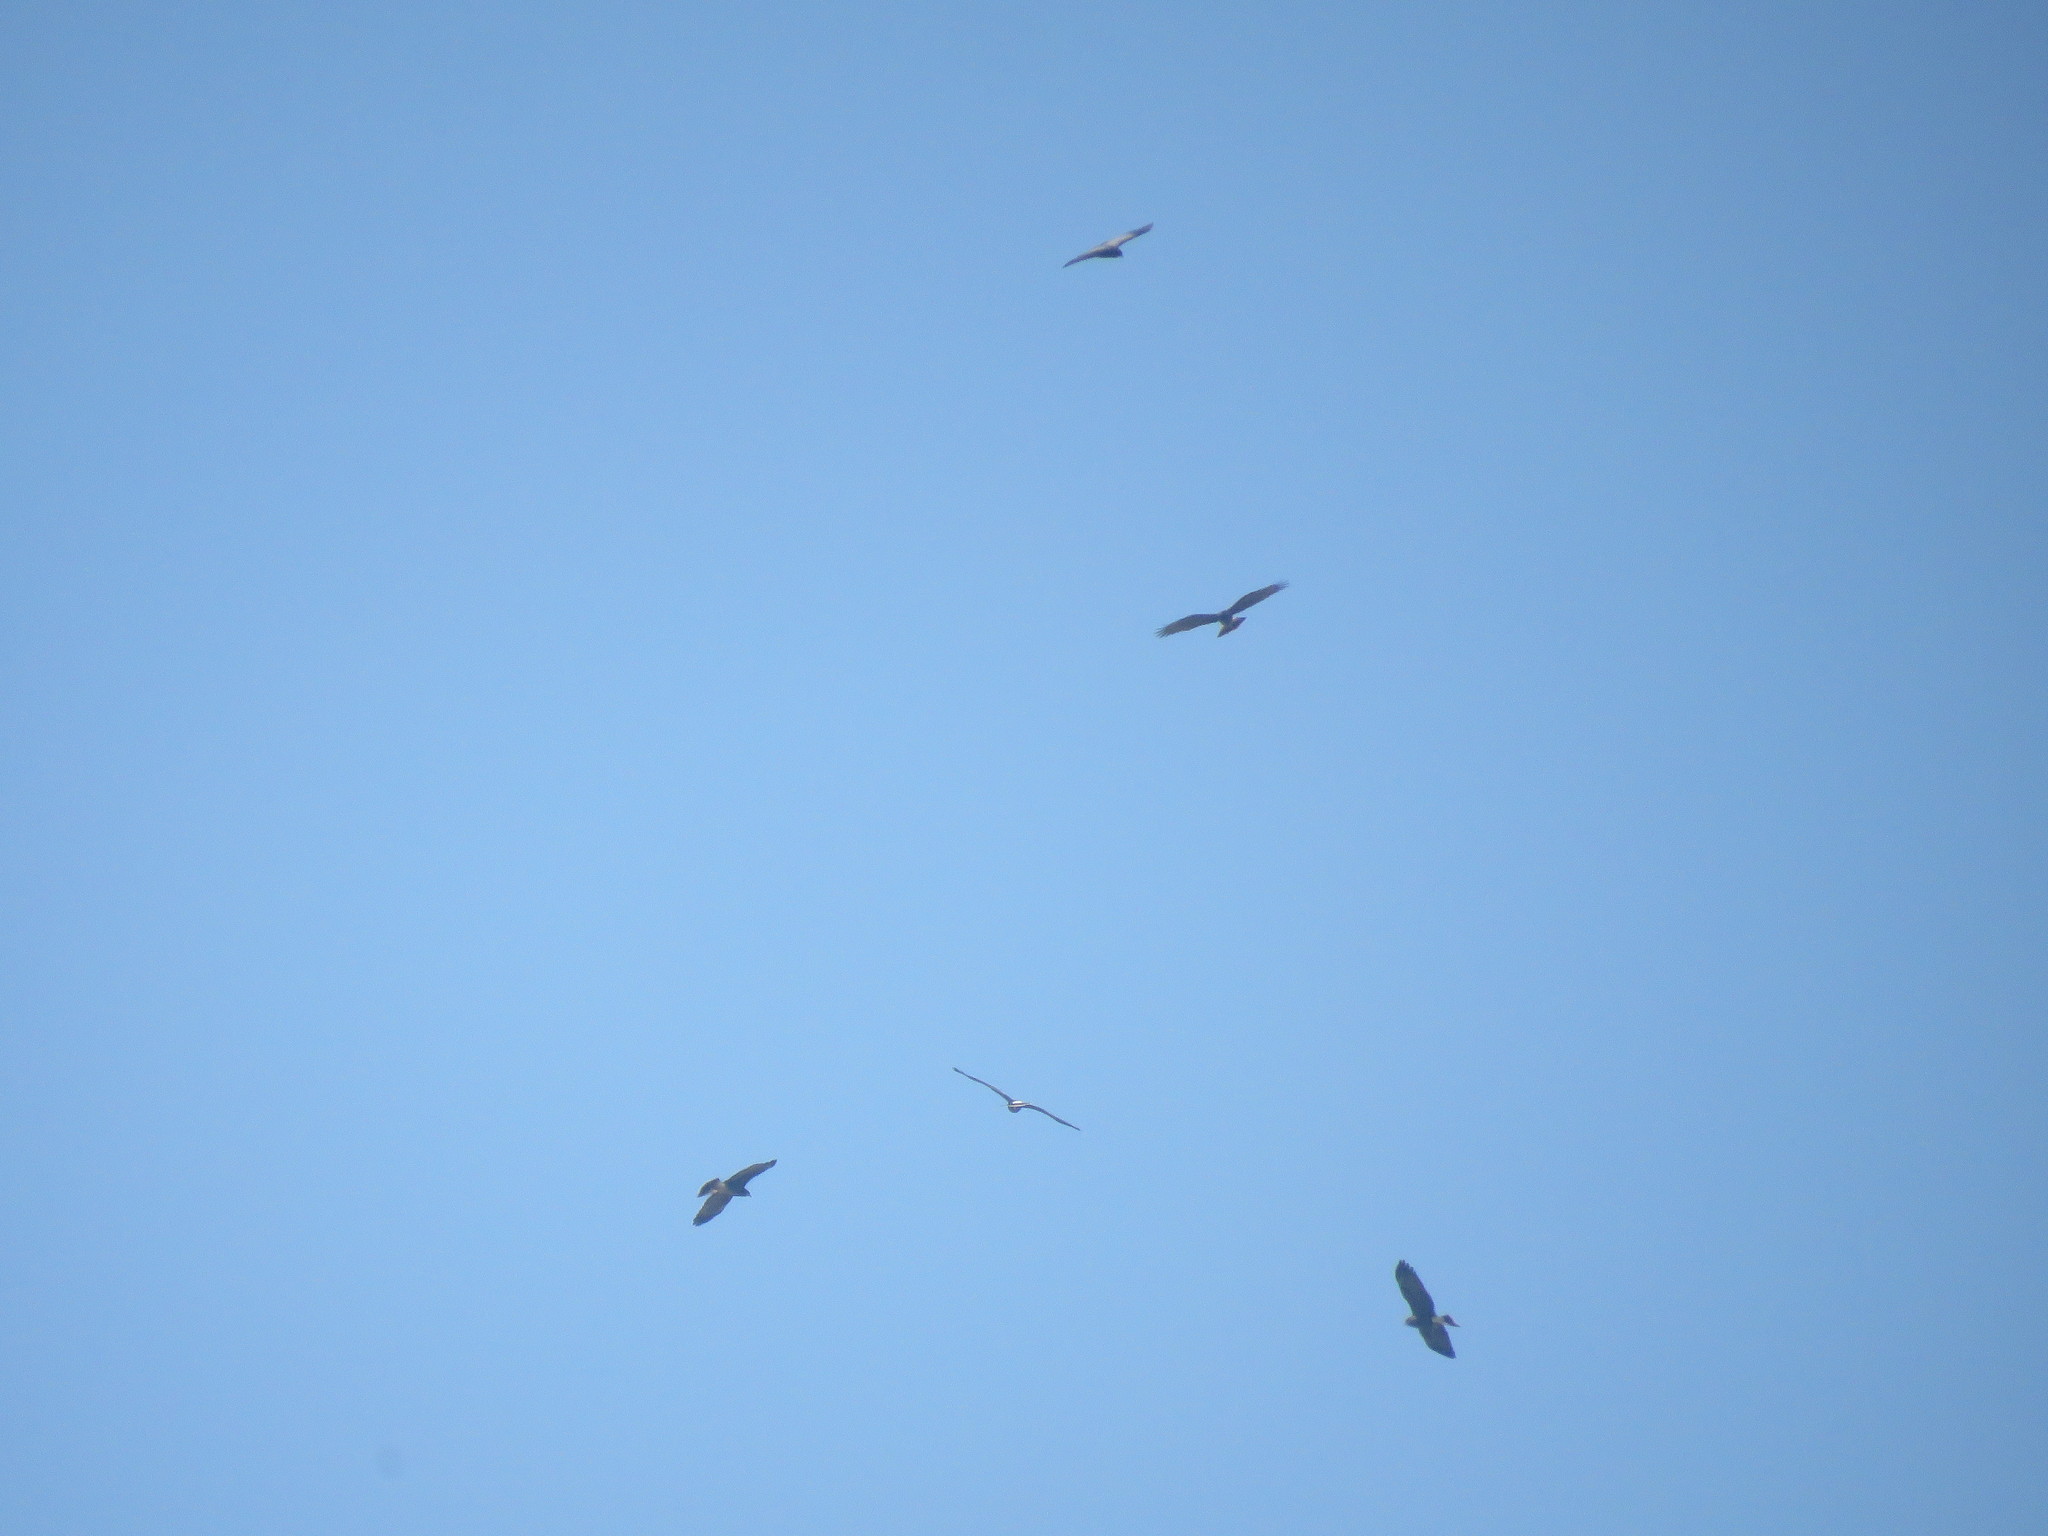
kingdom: Animalia
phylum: Chordata
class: Aves
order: Accipitriformes
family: Accipitridae
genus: Rostrhamus
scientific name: Rostrhamus sociabilis
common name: Snail kite
